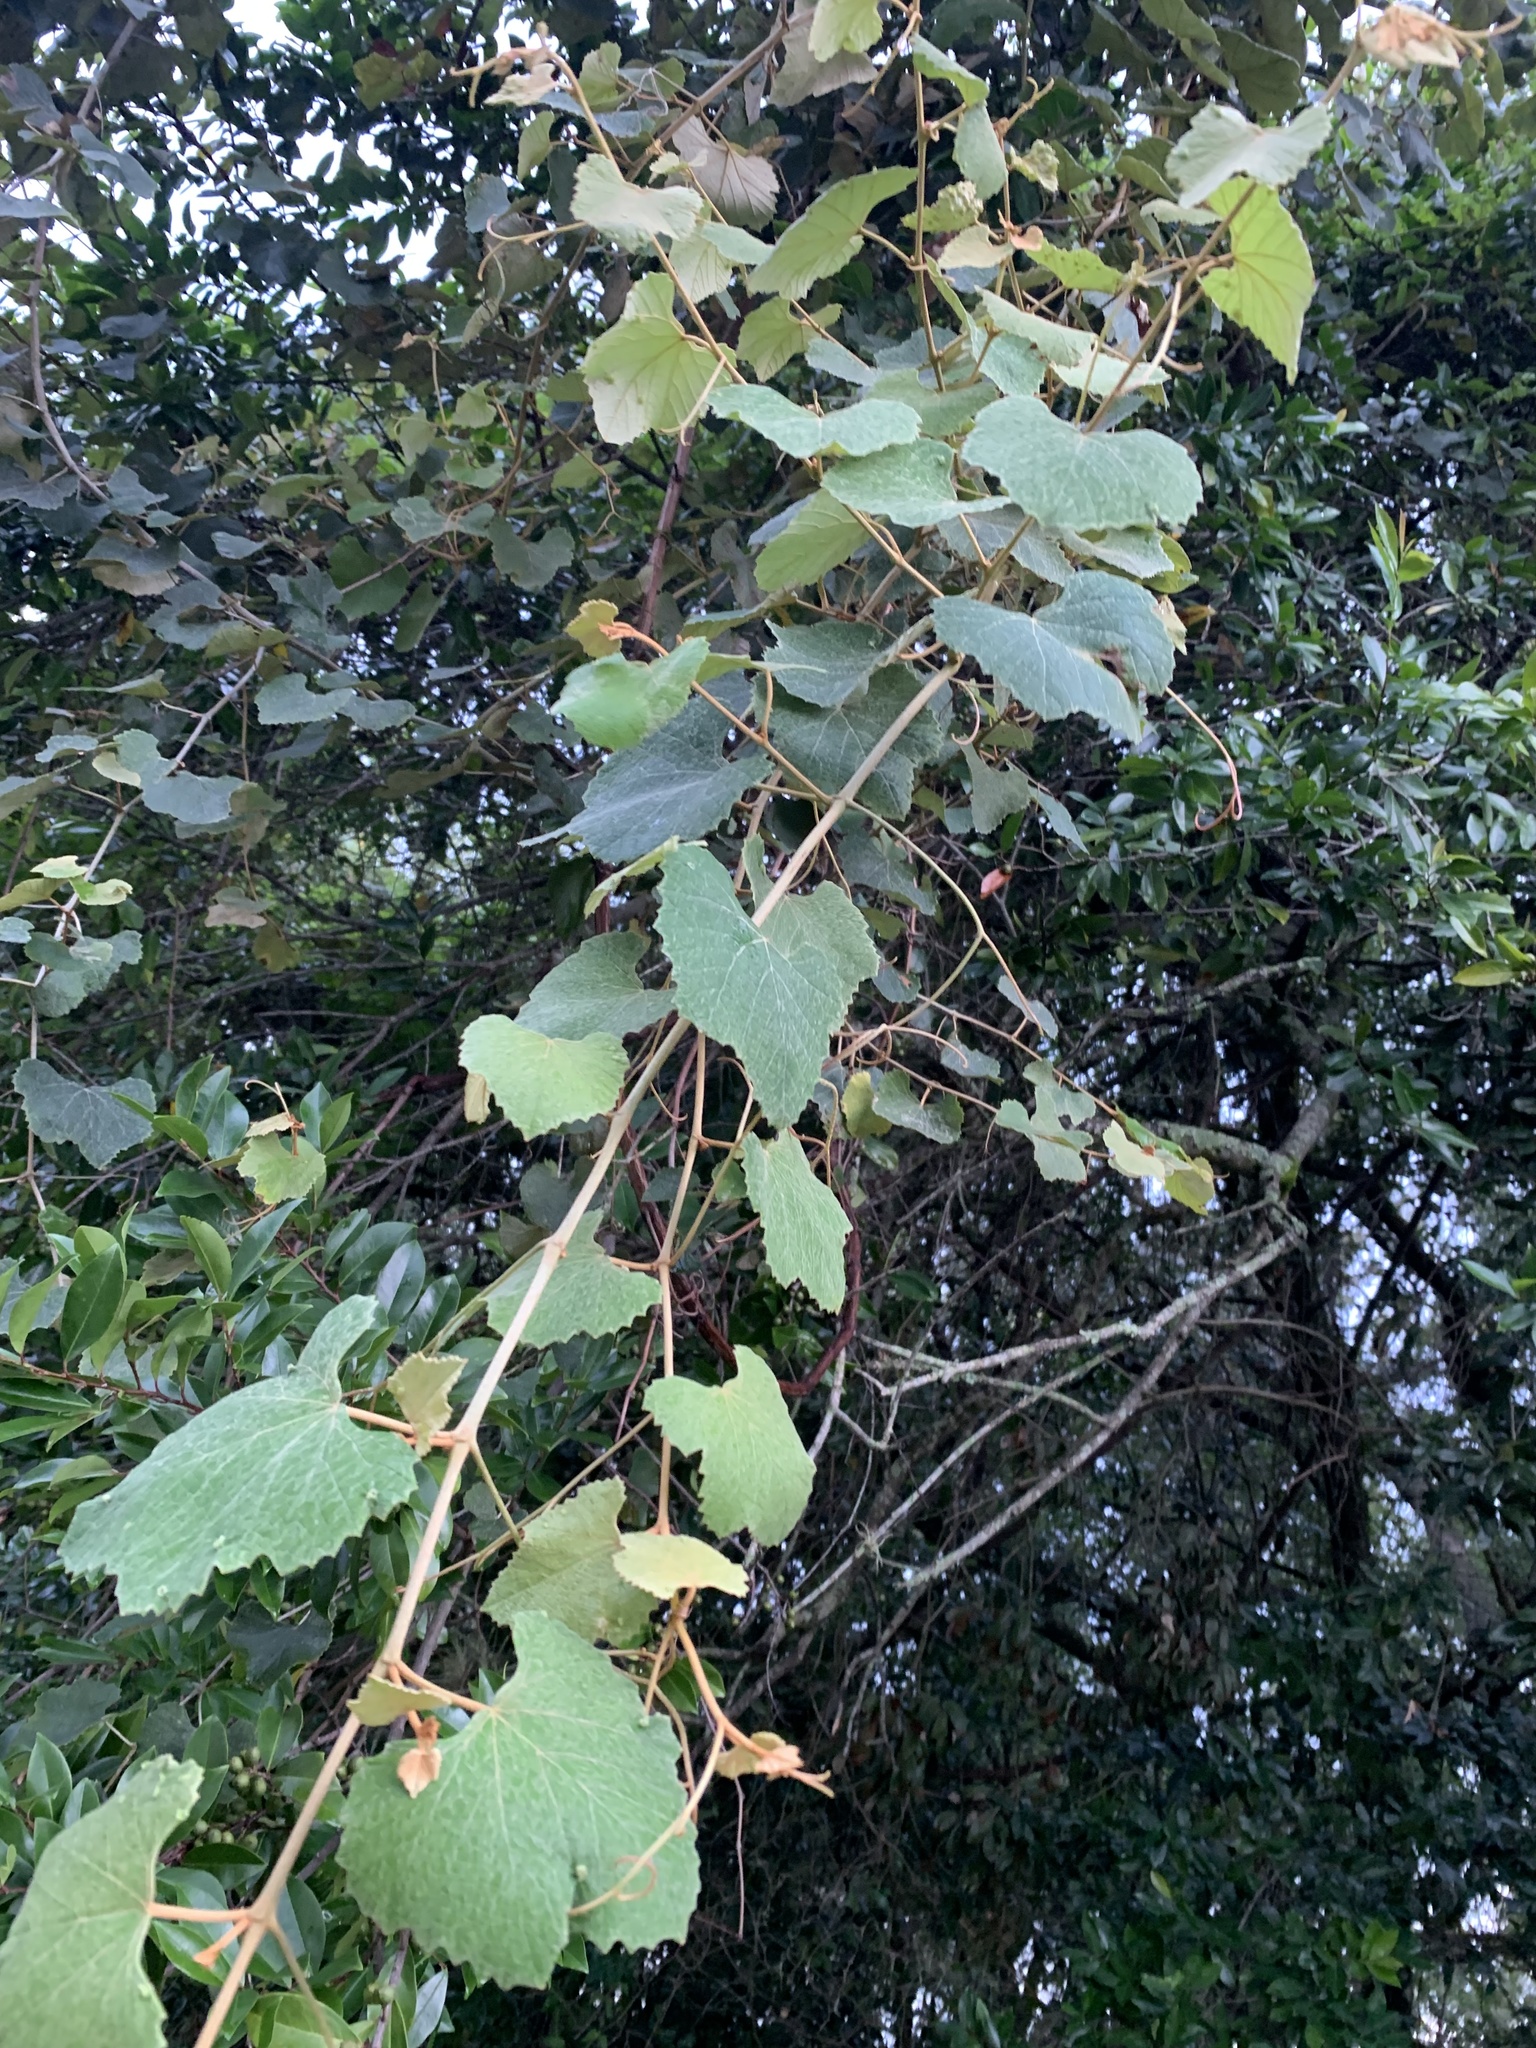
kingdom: Plantae
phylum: Tracheophyta
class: Magnoliopsida
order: Vitales
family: Vitaceae
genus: Vitis
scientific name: Vitis shuttleworthii
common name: Caloosa grape
